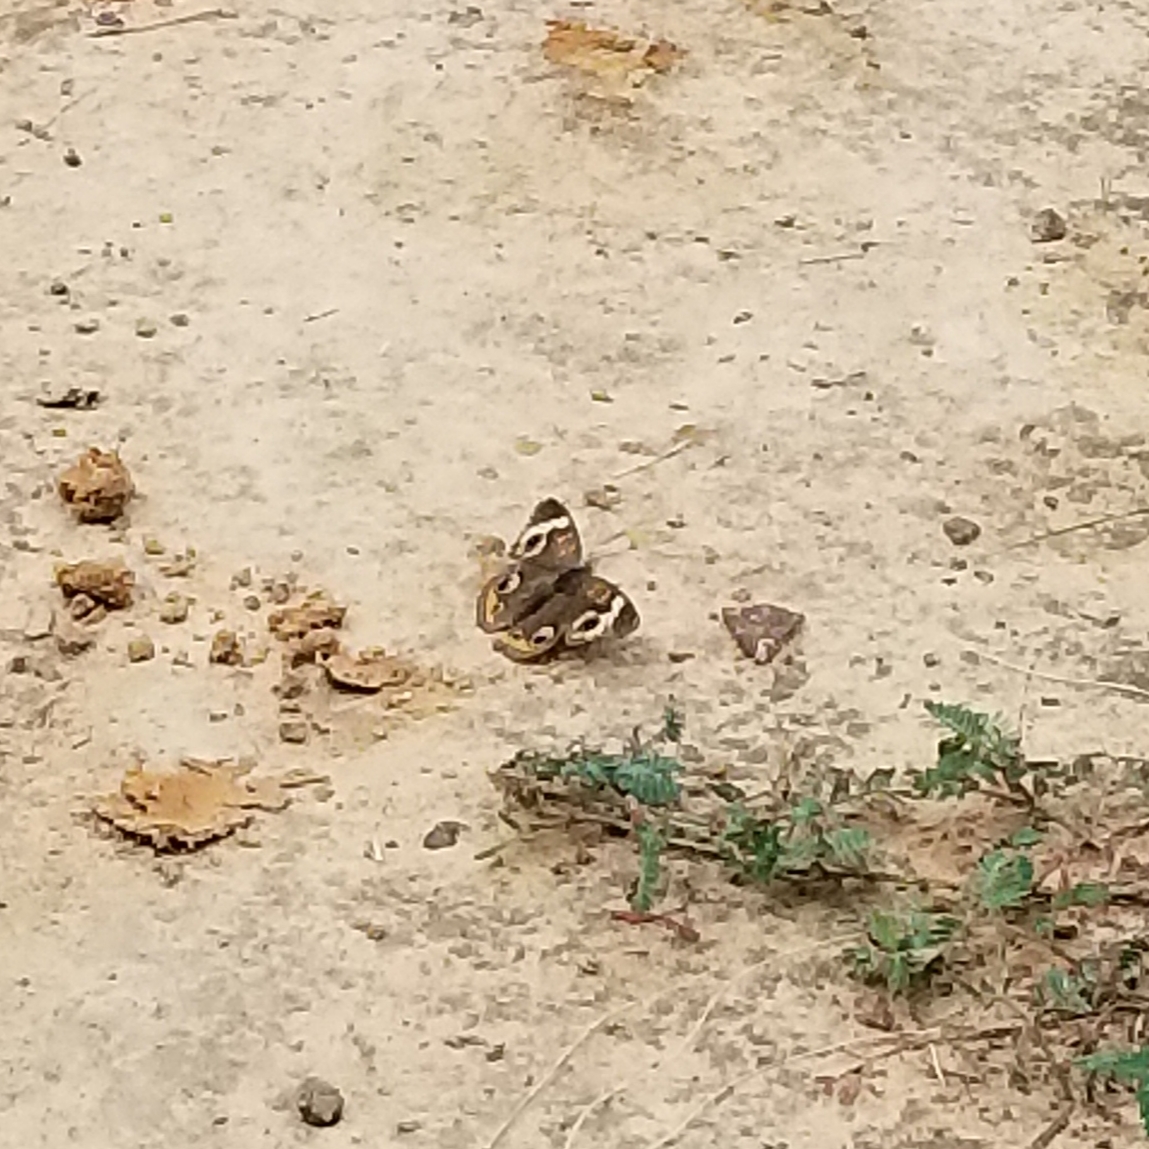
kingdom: Animalia
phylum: Arthropoda
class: Insecta
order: Lepidoptera
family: Nymphalidae
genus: Junonia
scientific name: Junonia coenia
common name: Common buckeye
